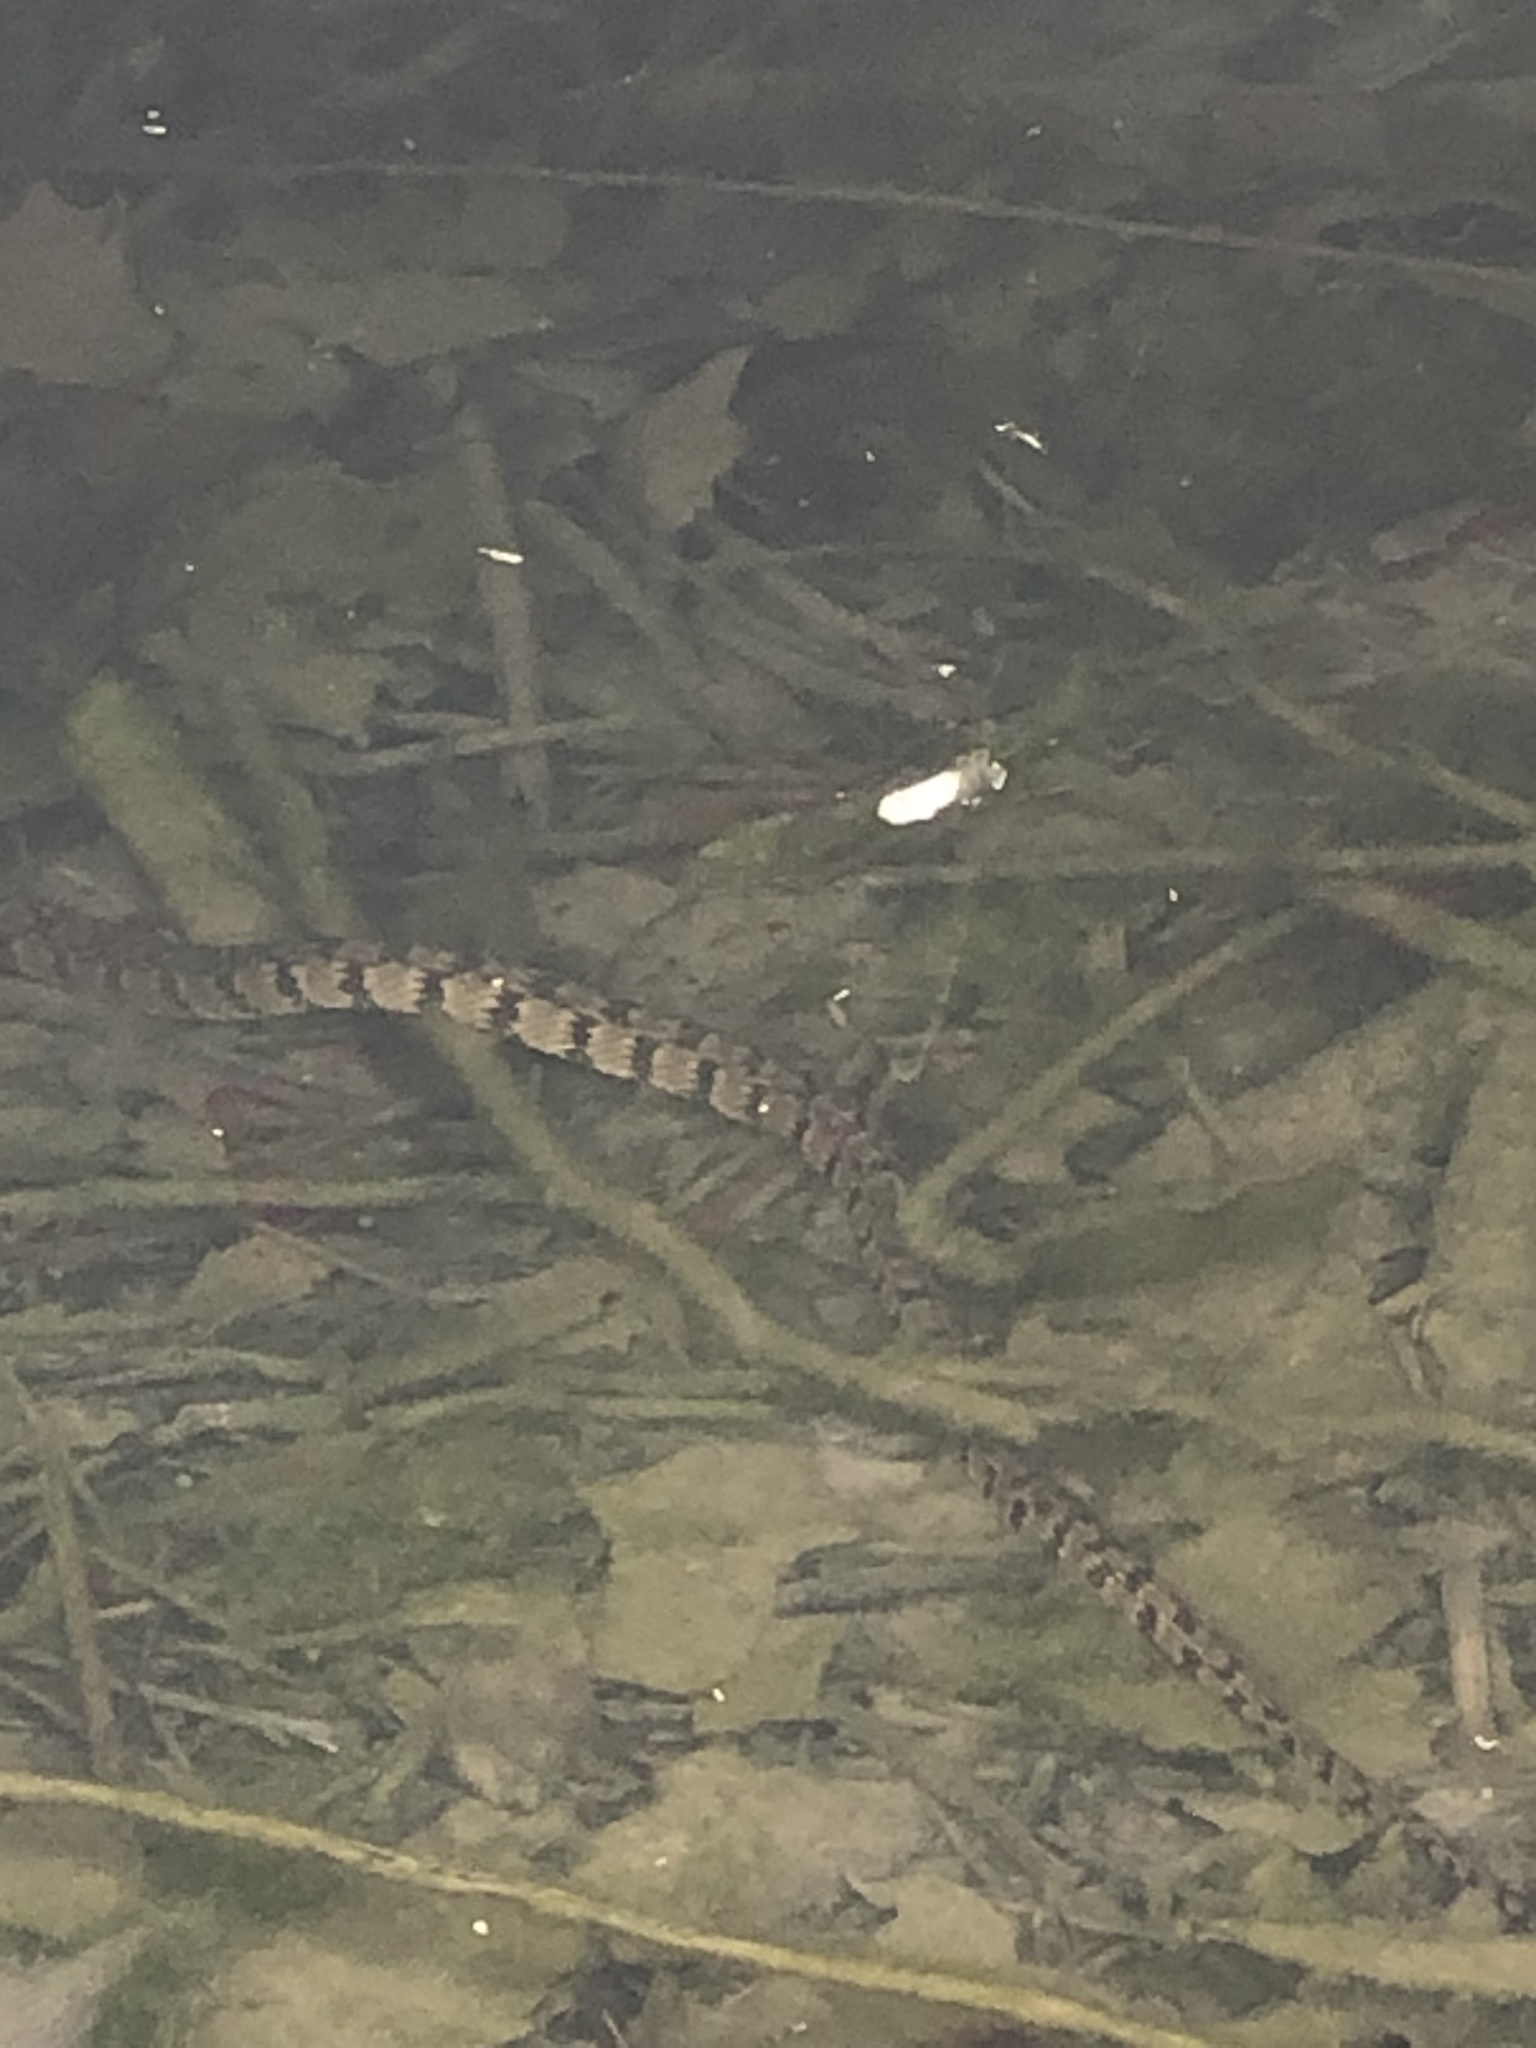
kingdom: Animalia
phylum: Chordata
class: Squamata
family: Colubridae
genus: Nerodia
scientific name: Nerodia rhombifer
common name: Diamondback water snake
